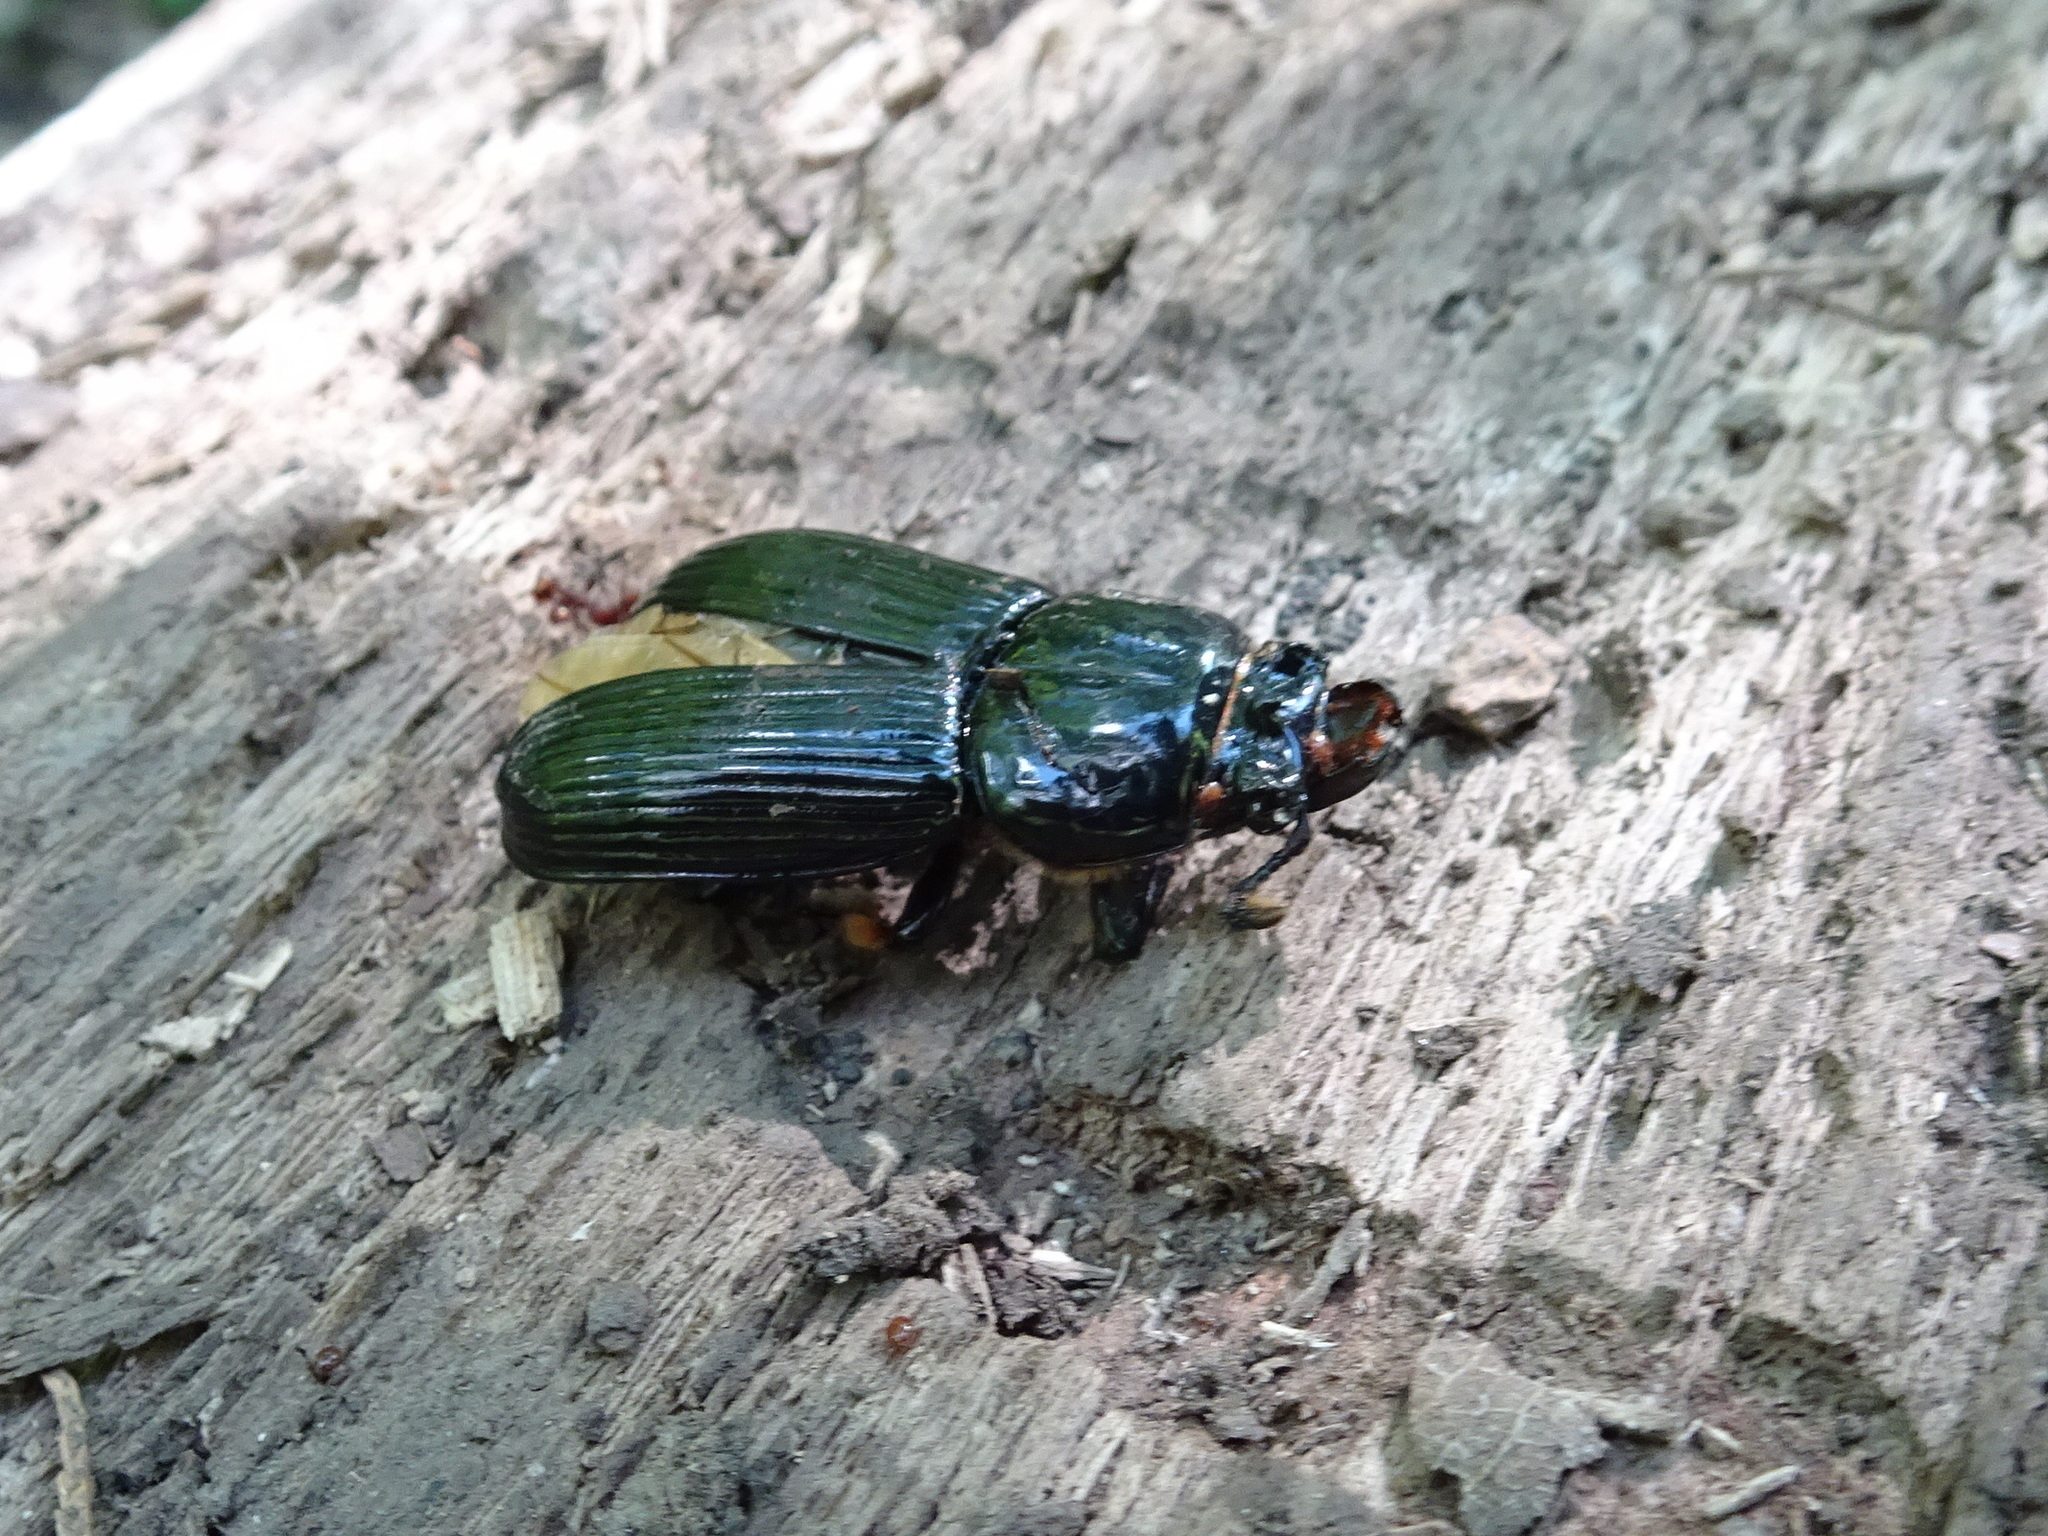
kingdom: Animalia
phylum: Arthropoda
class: Insecta
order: Coleoptera
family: Passalidae
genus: Odontotaenius
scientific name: Odontotaenius disjunctus
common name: Patent leather beetle
